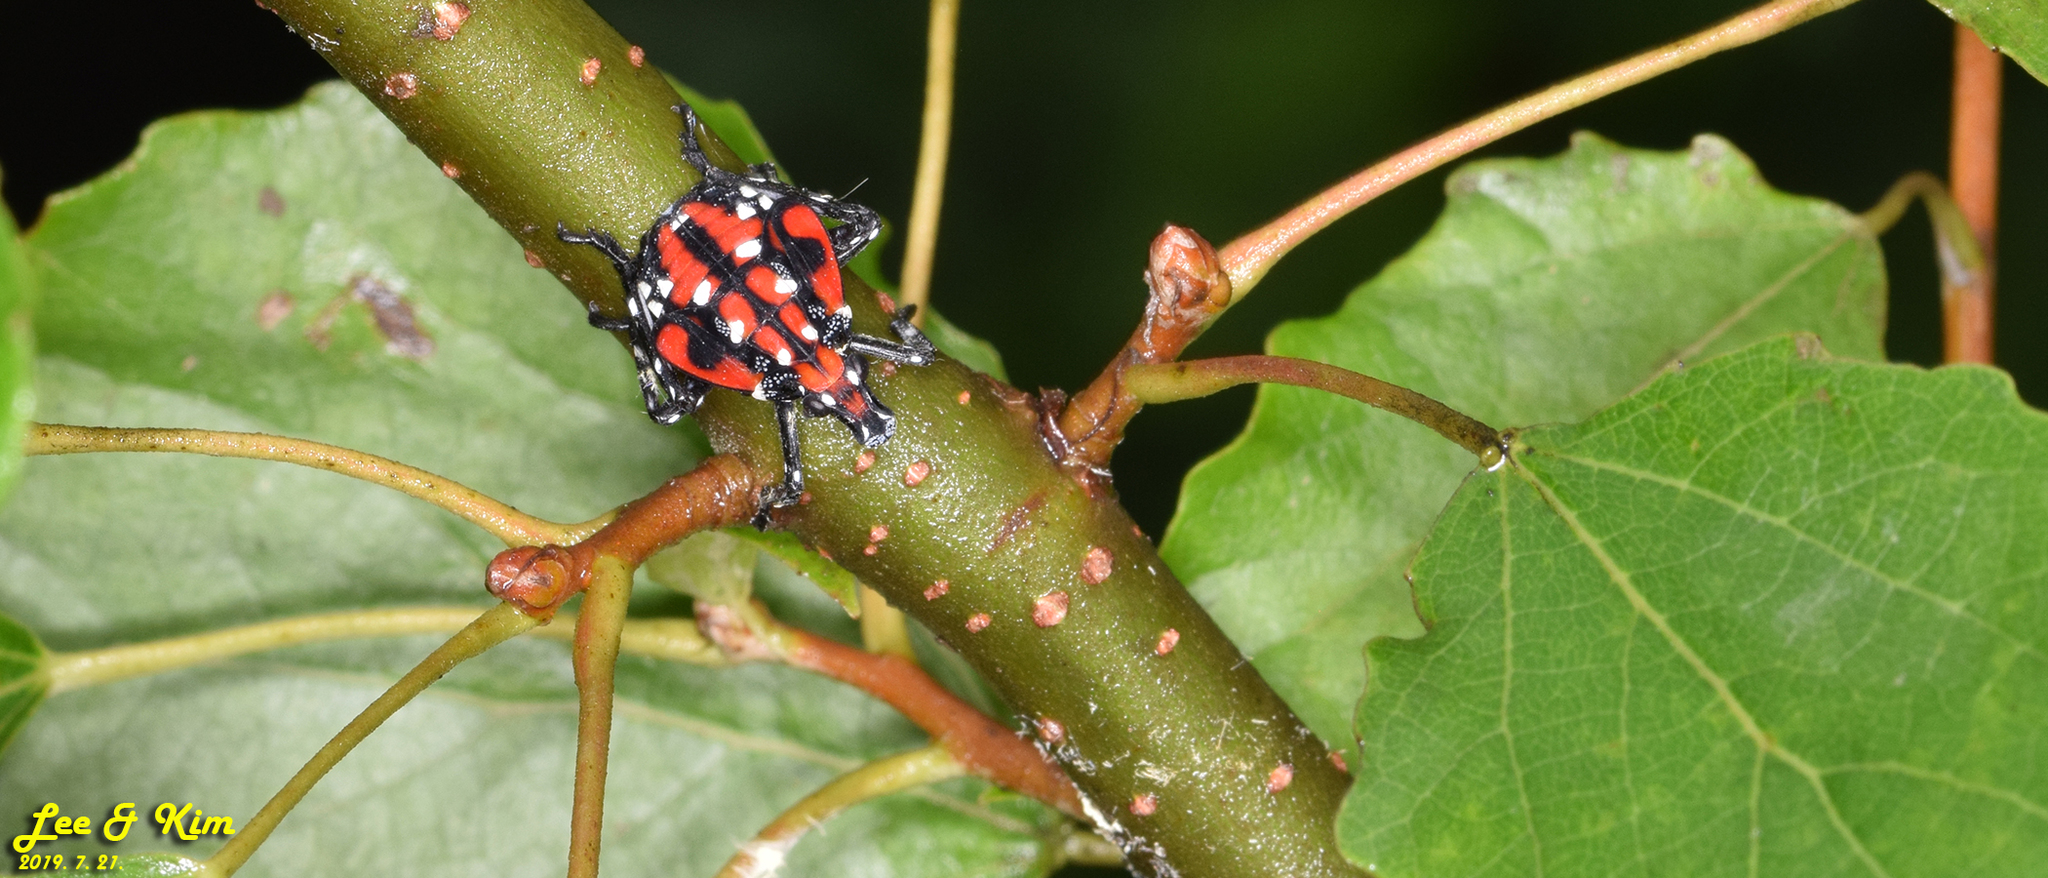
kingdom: Animalia
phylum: Arthropoda
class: Insecta
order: Hemiptera
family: Fulgoridae
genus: Lycorma
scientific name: Lycorma delicatula
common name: Spotted lanternfly
